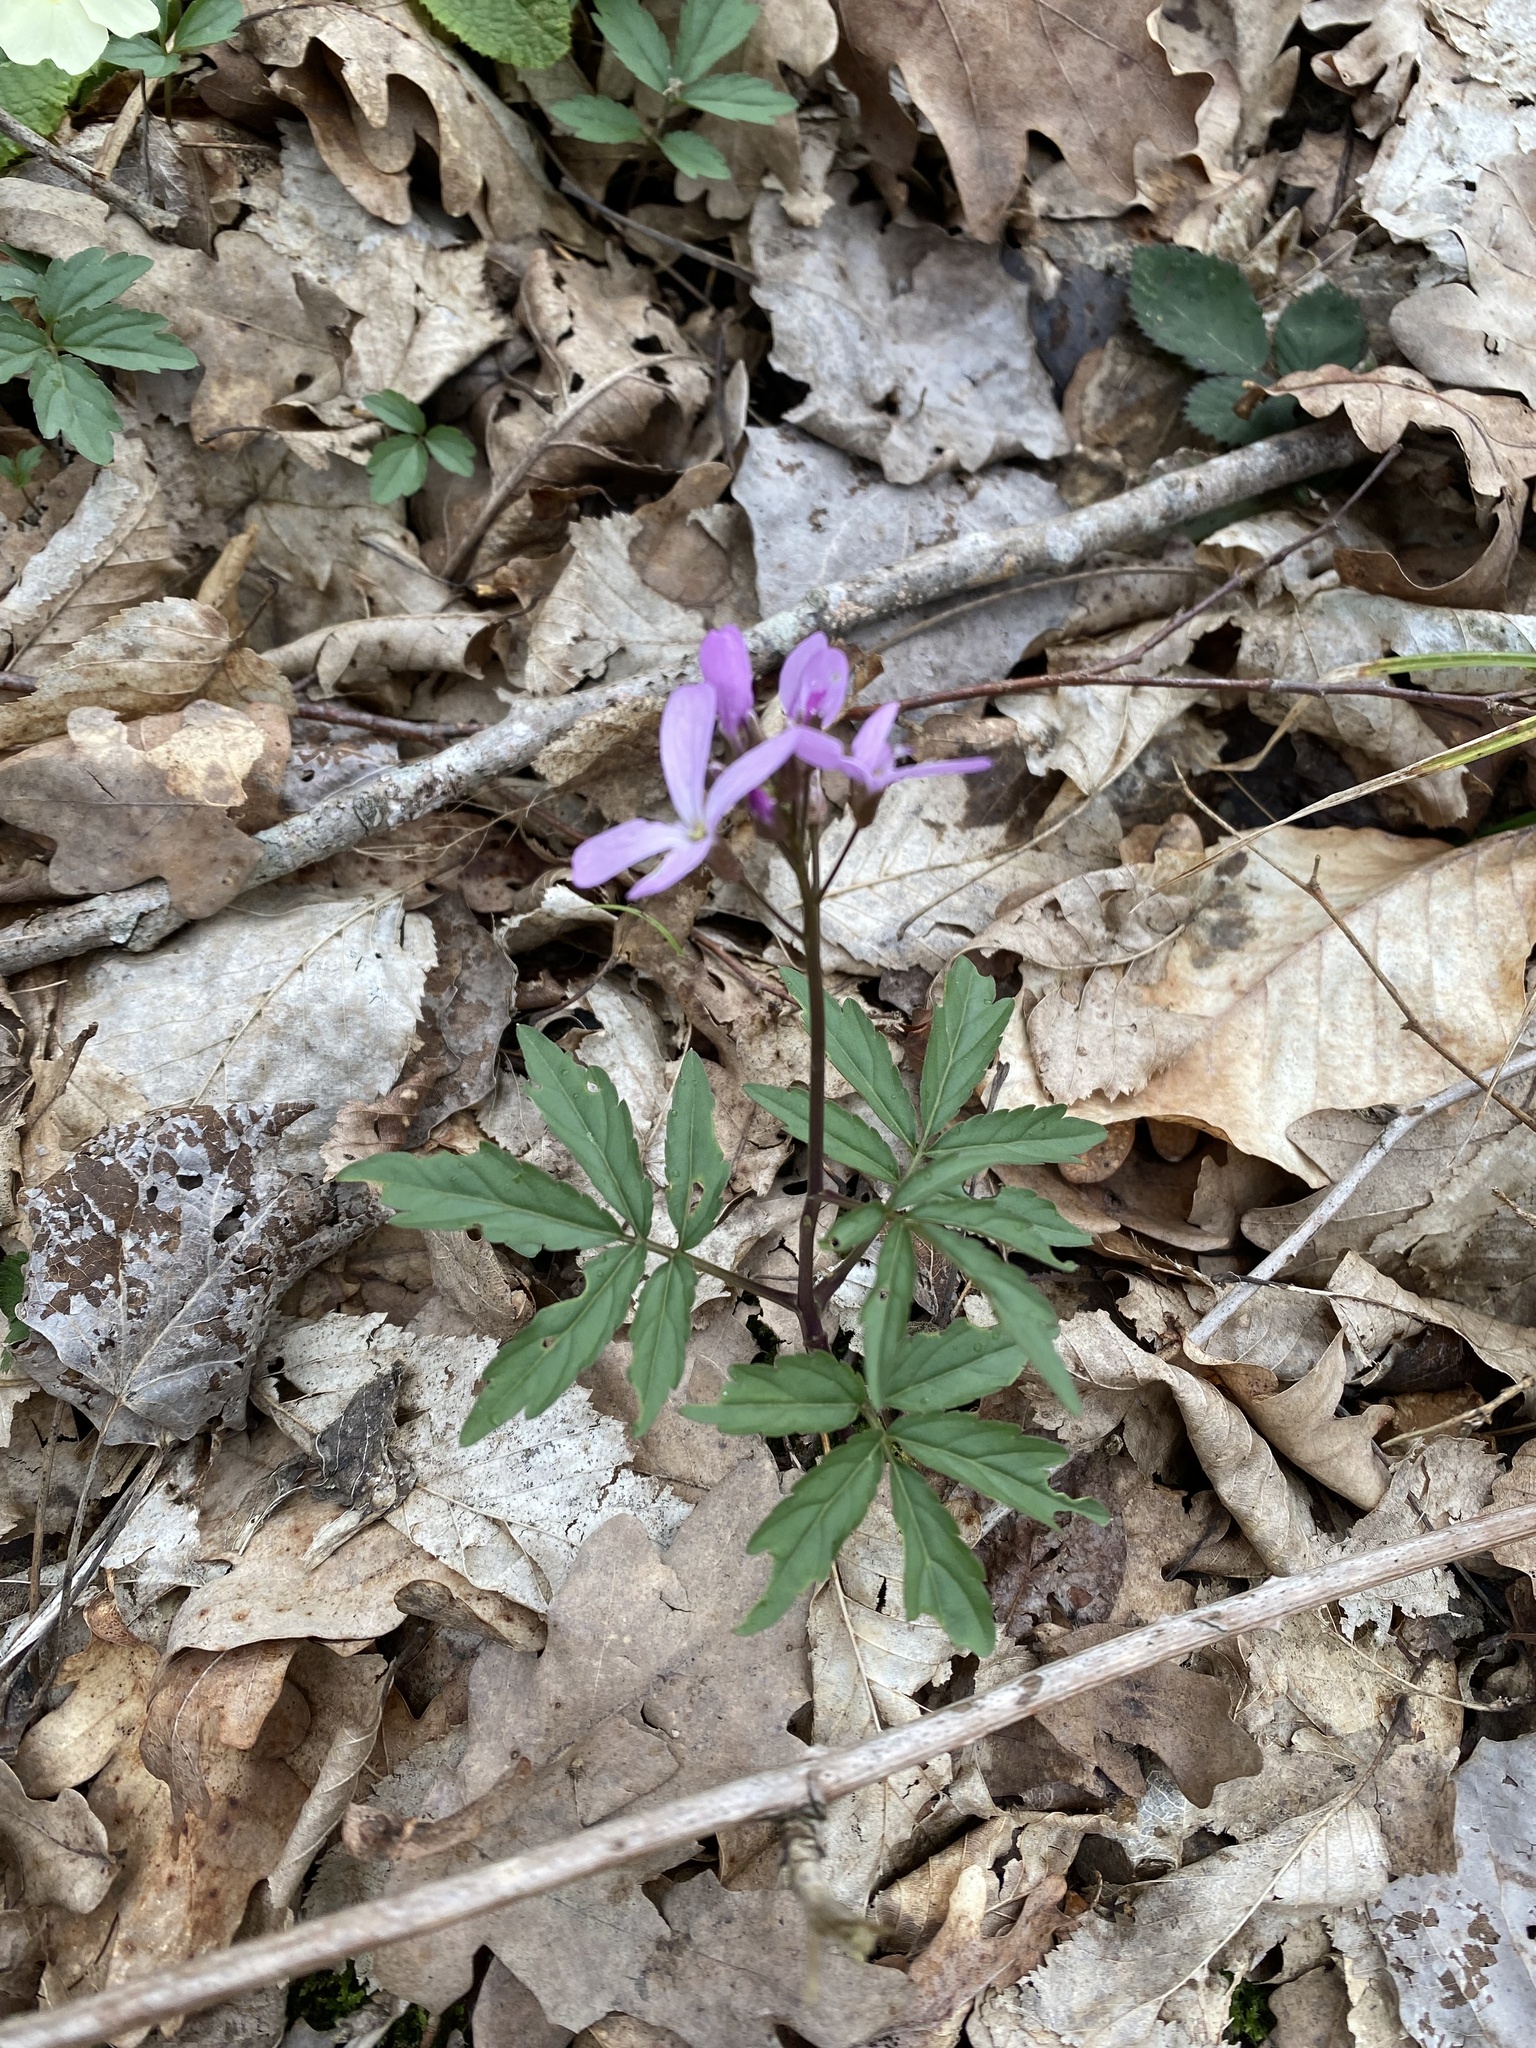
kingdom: Plantae
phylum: Tracheophyta
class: Magnoliopsida
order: Brassicales
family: Brassicaceae
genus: Cardamine
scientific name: Cardamine quinquefolia
